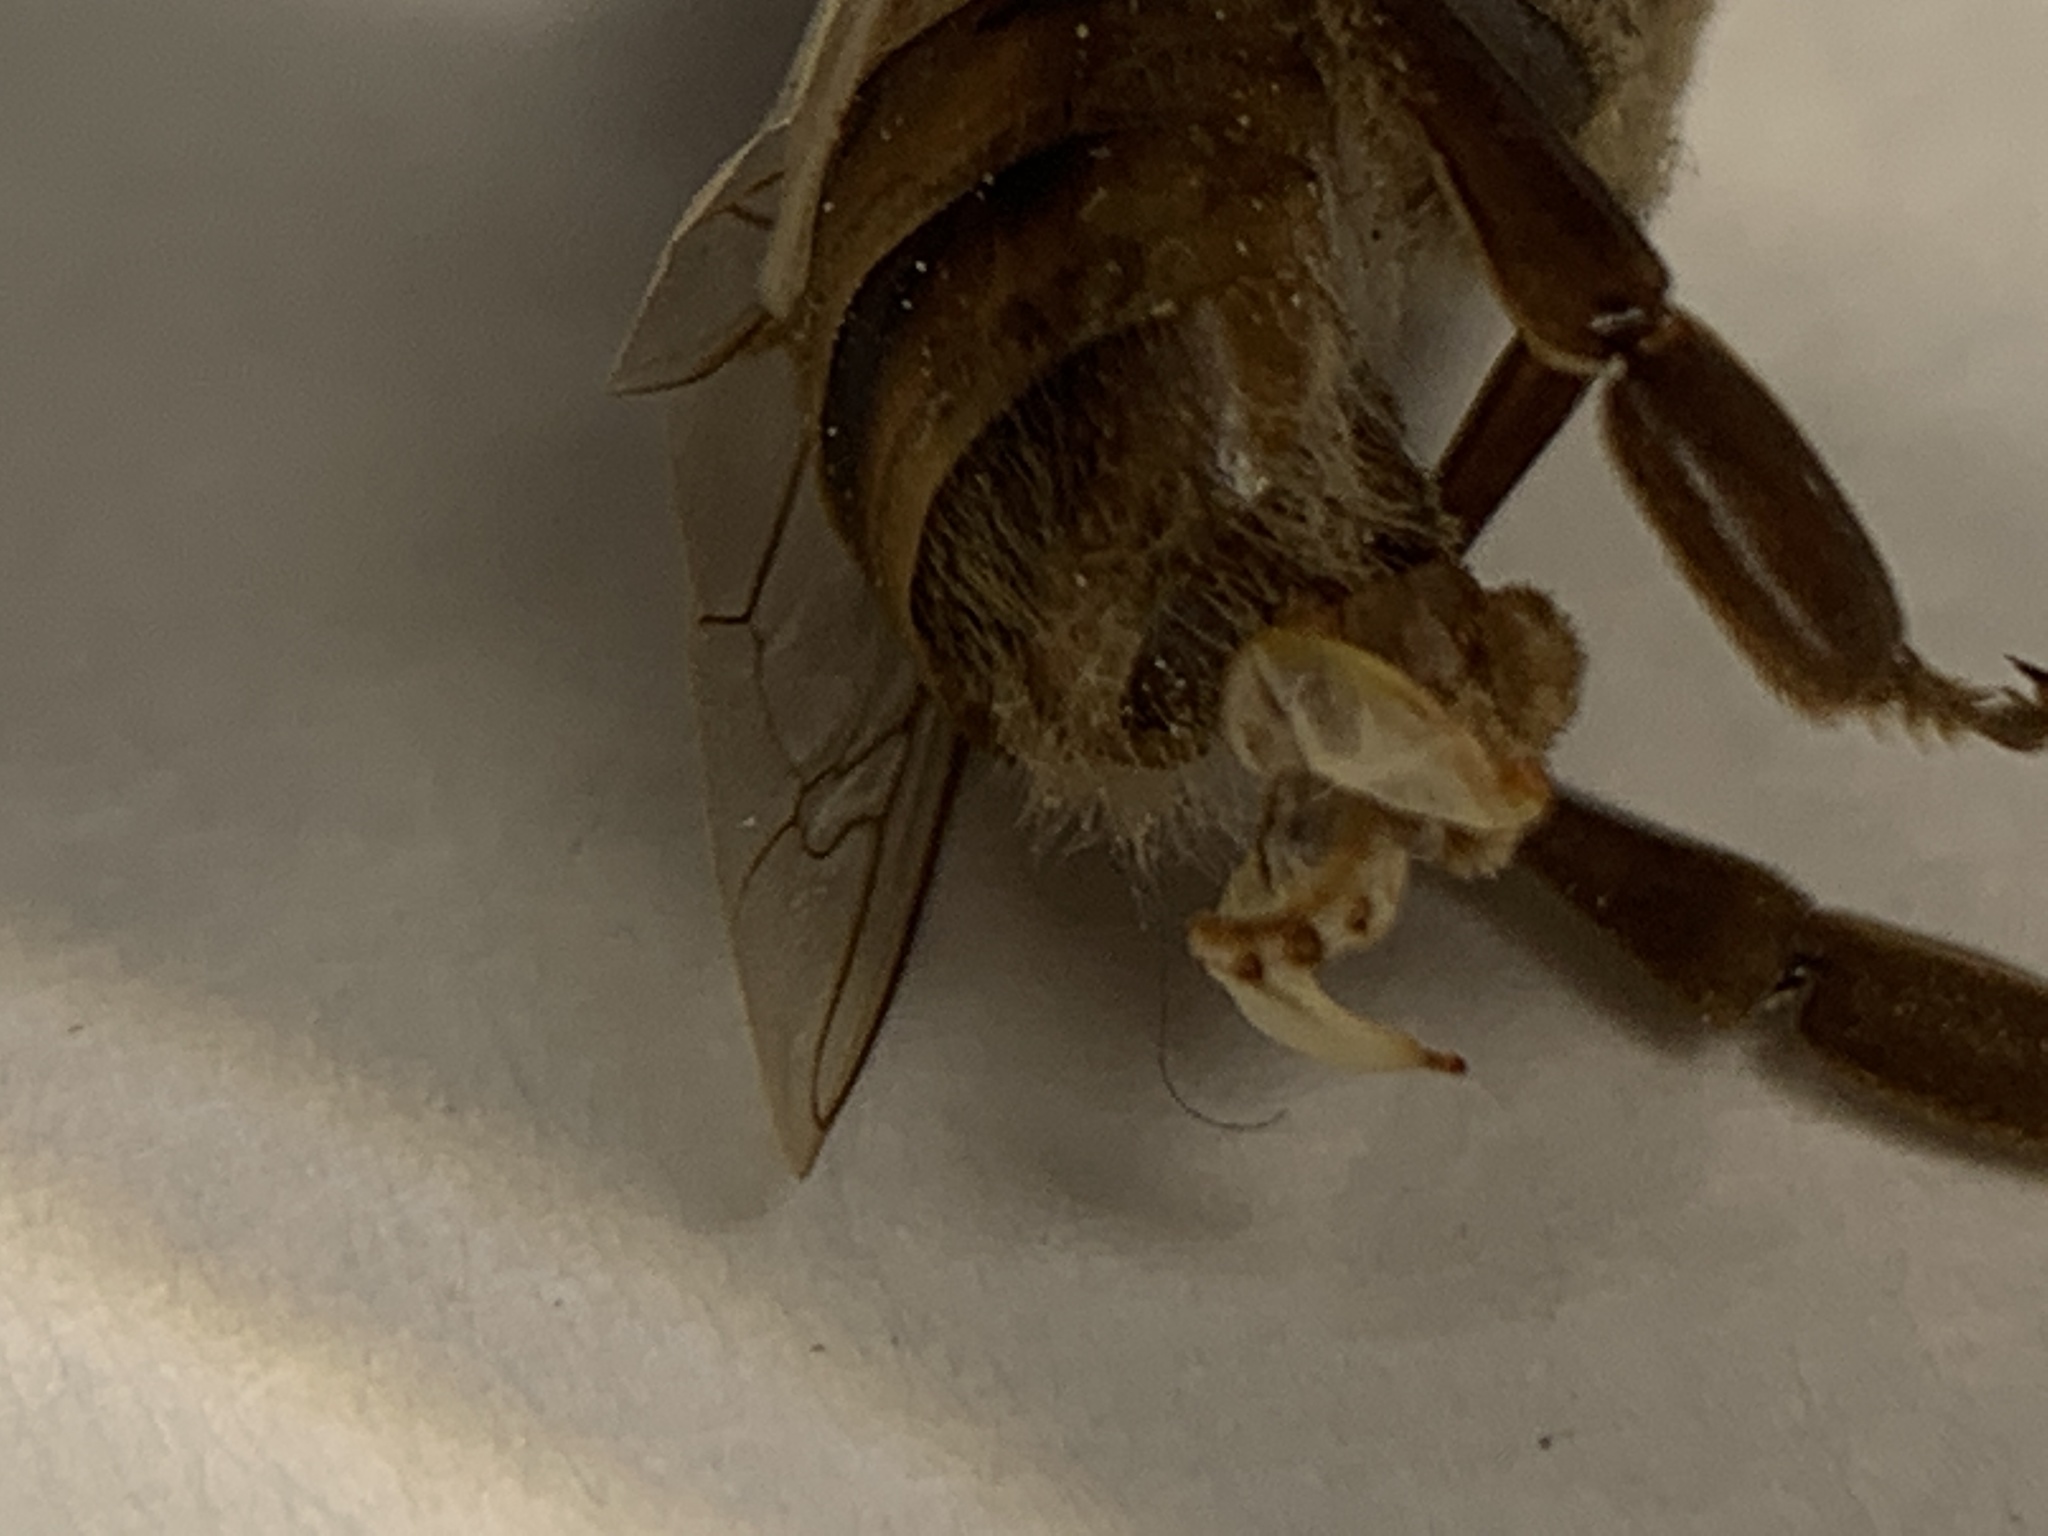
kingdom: Animalia
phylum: Arthropoda
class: Insecta
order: Hymenoptera
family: Apidae
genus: Apis
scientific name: Apis mellifera
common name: Honey bee
